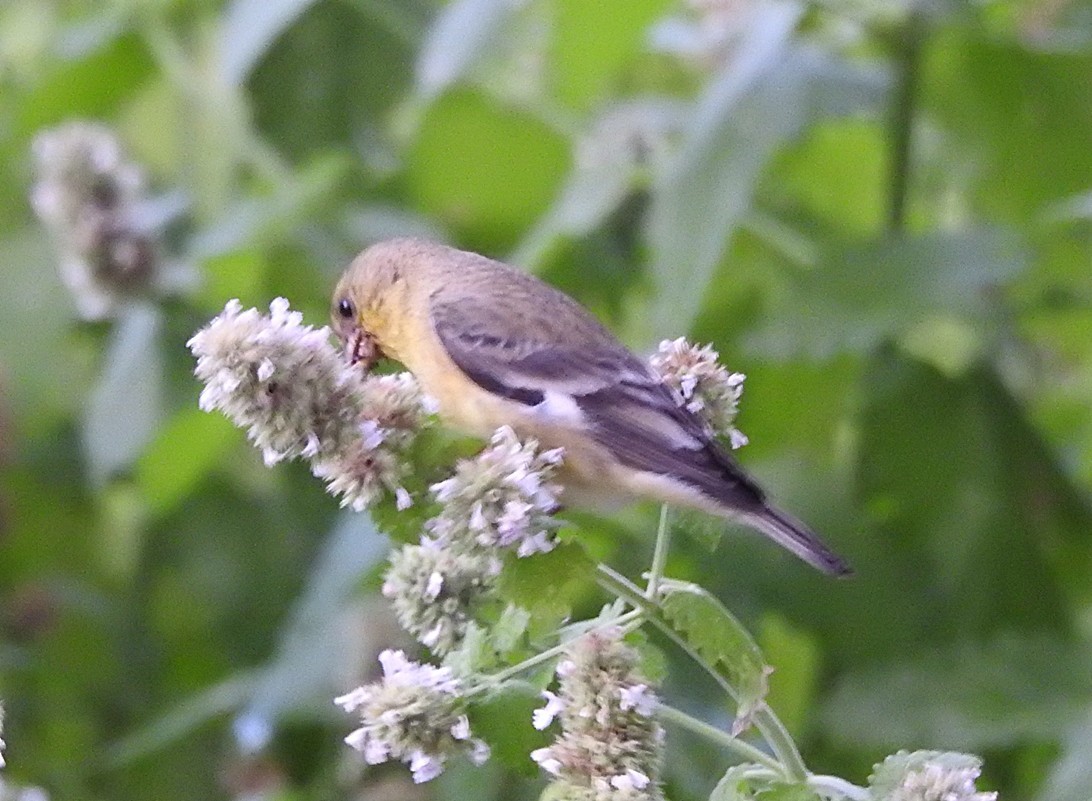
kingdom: Animalia
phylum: Chordata
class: Aves
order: Passeriformes
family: Fringillidae
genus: Spinus
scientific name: Spinus psaltria
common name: Lesser goldfinch
